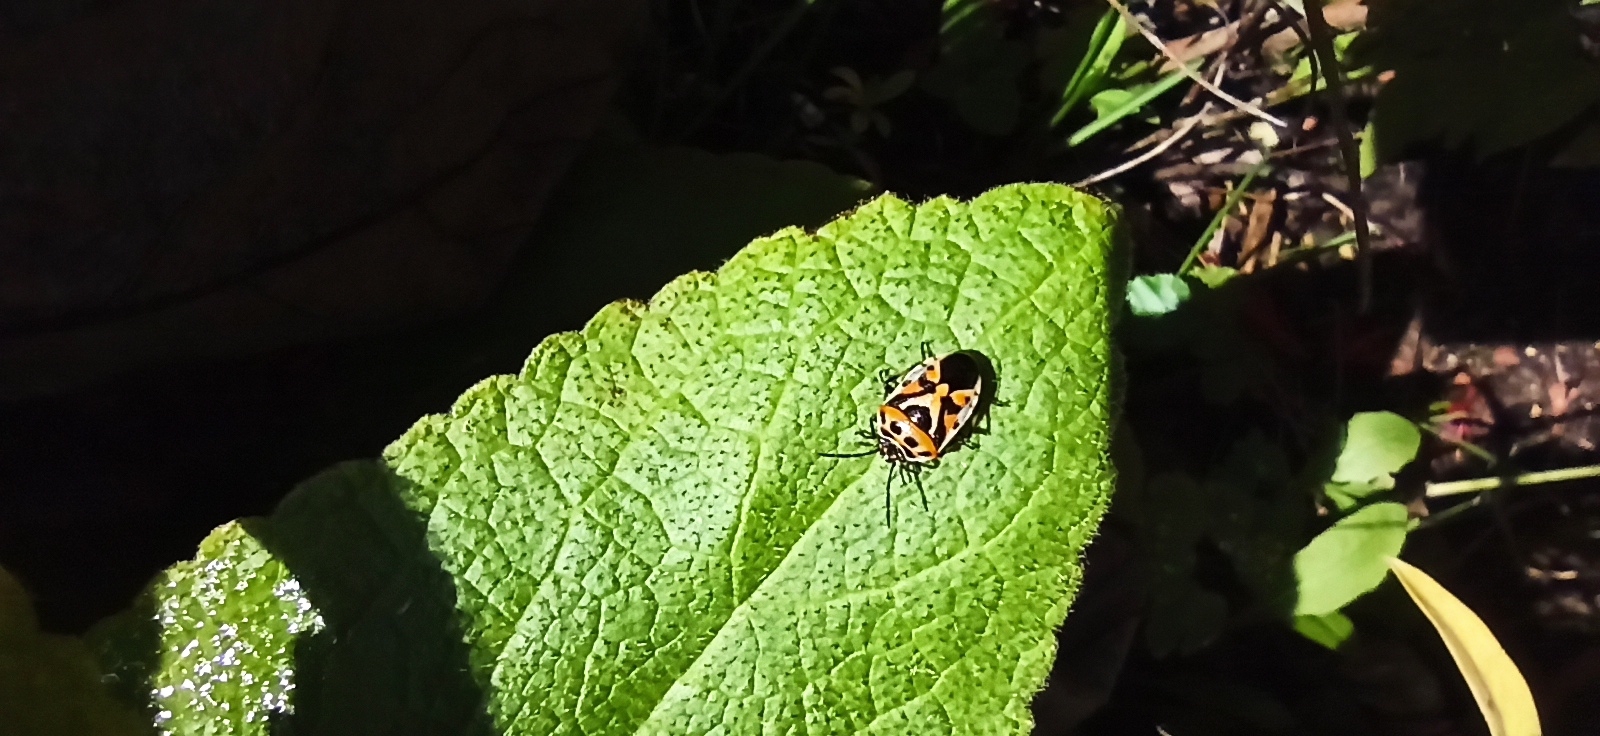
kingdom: Animalia
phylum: Arthropoda
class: Insecta
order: Hemiptera
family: Pentatomidae
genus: Eurydema
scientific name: Eurydema ornata
